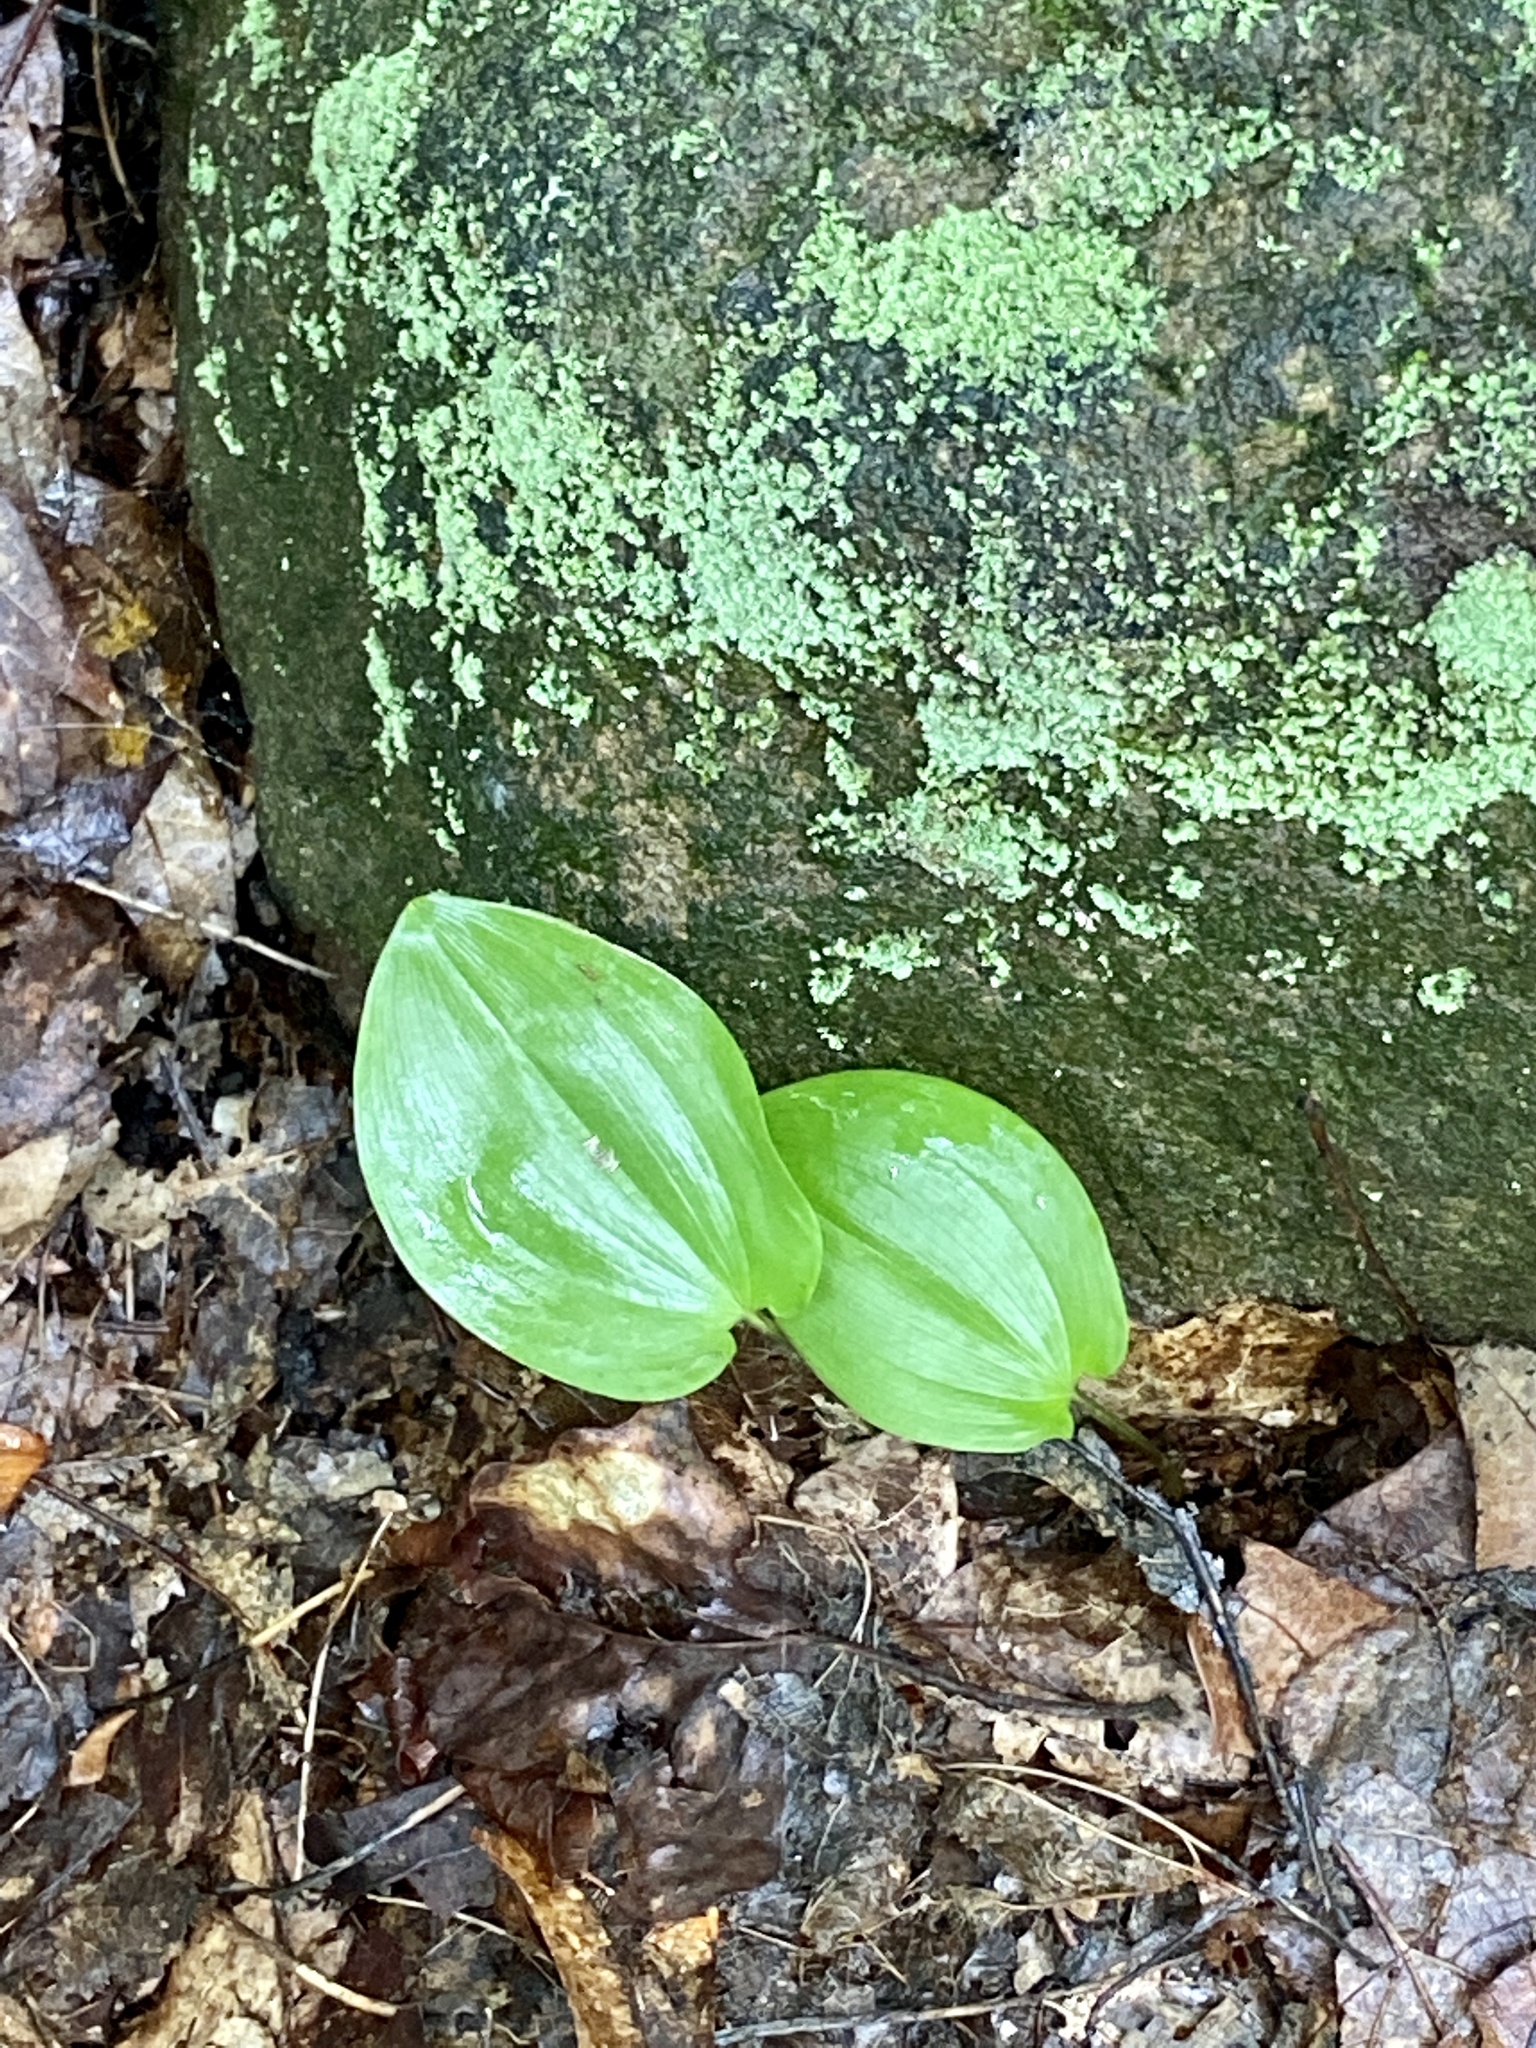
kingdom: Plantae
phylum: Tracheophyta
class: Liliopsida
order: Asparagales
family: Asparagaceae
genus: Maianthemum
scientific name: Maianthemum canadense
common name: False lily-of-the-valley
